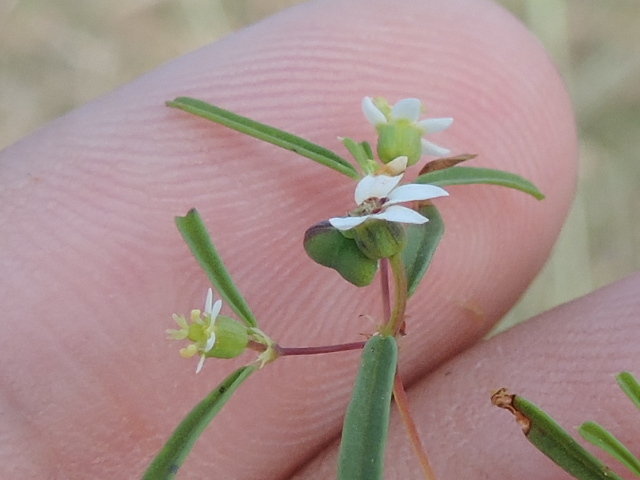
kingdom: Plantae
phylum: Tracheophyta
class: Magnoliopsida
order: Malpighiales
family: Euphorbiaceae
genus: Euphorbia
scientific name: Euphorbia missurica
